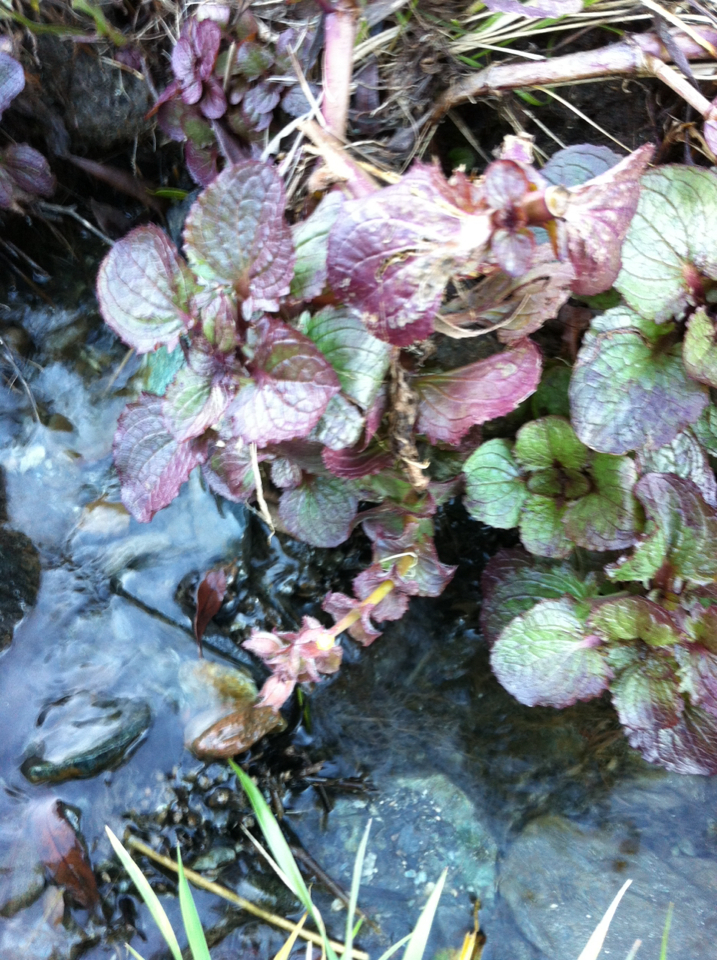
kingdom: Plantae
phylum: Tracheophyta
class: Magnoliopsida
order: Lamiales
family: Phrymaceae
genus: Erythranthe
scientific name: Erythranthe guttata
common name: Monkeyflower
